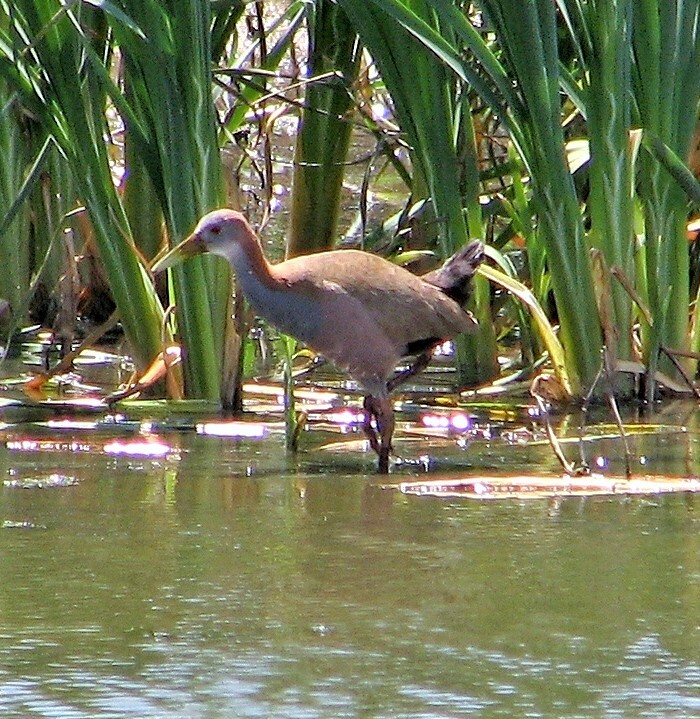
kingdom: Animalia
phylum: Chordata
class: Aves
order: Gruiformes
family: Rallidae
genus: Aramides
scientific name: Aramides ypecaha
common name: Giant wood rail
